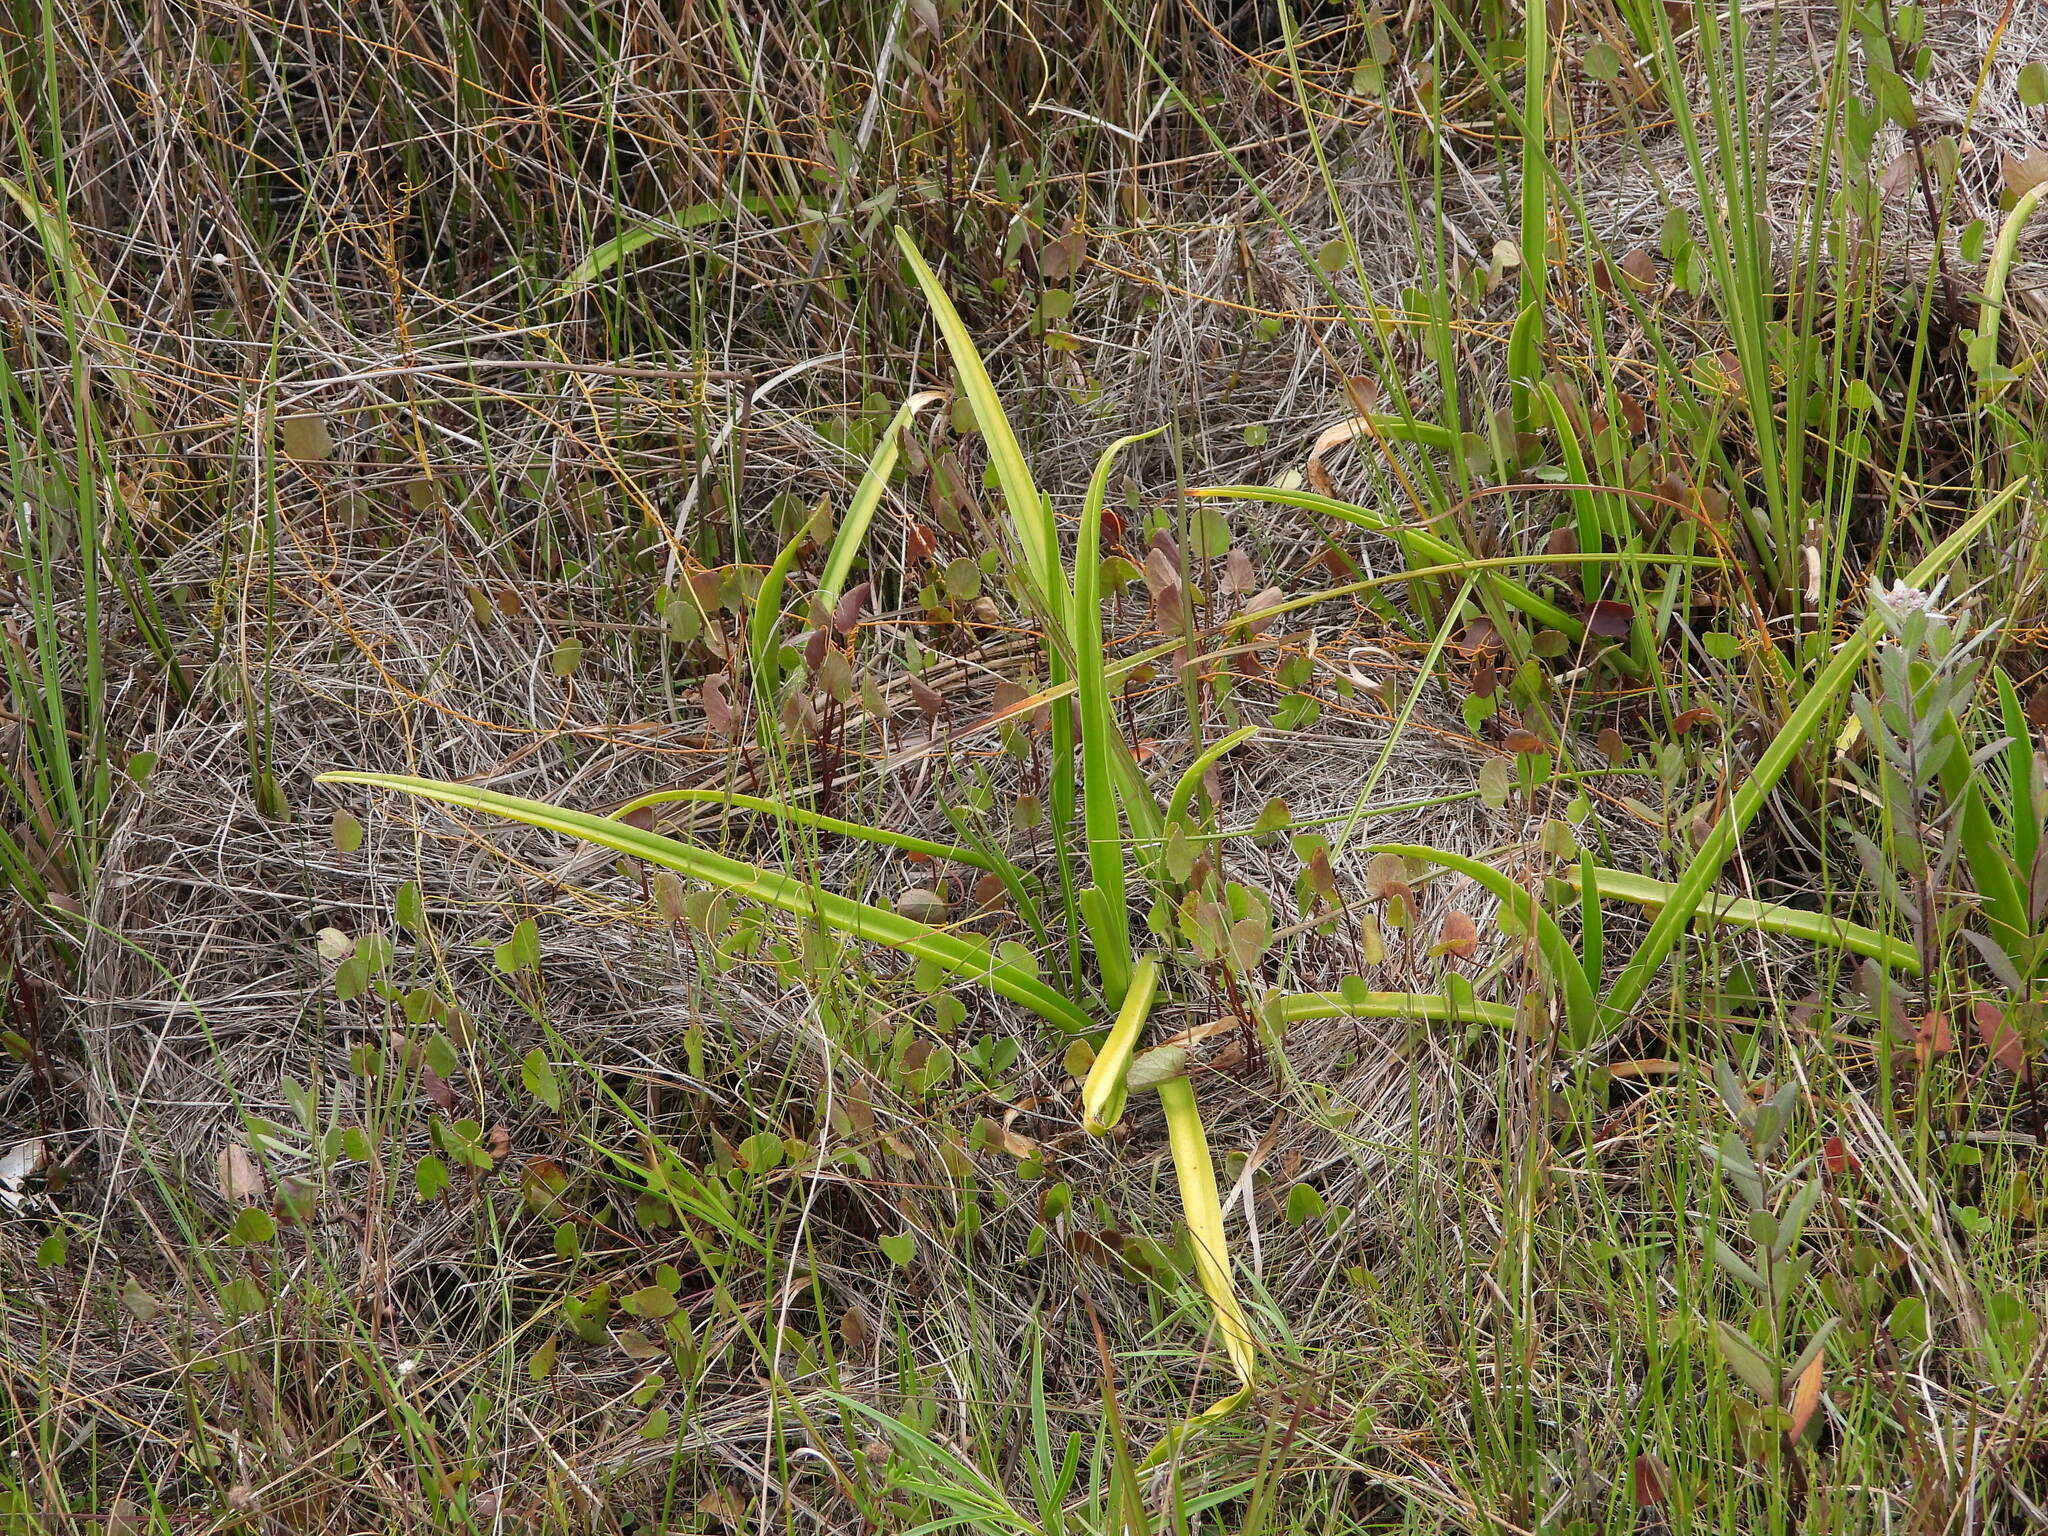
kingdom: Plantae
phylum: Tracheophyta
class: Magnoliopsida
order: Apiales
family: Apiaceae
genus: Centella
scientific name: Centella erecta
